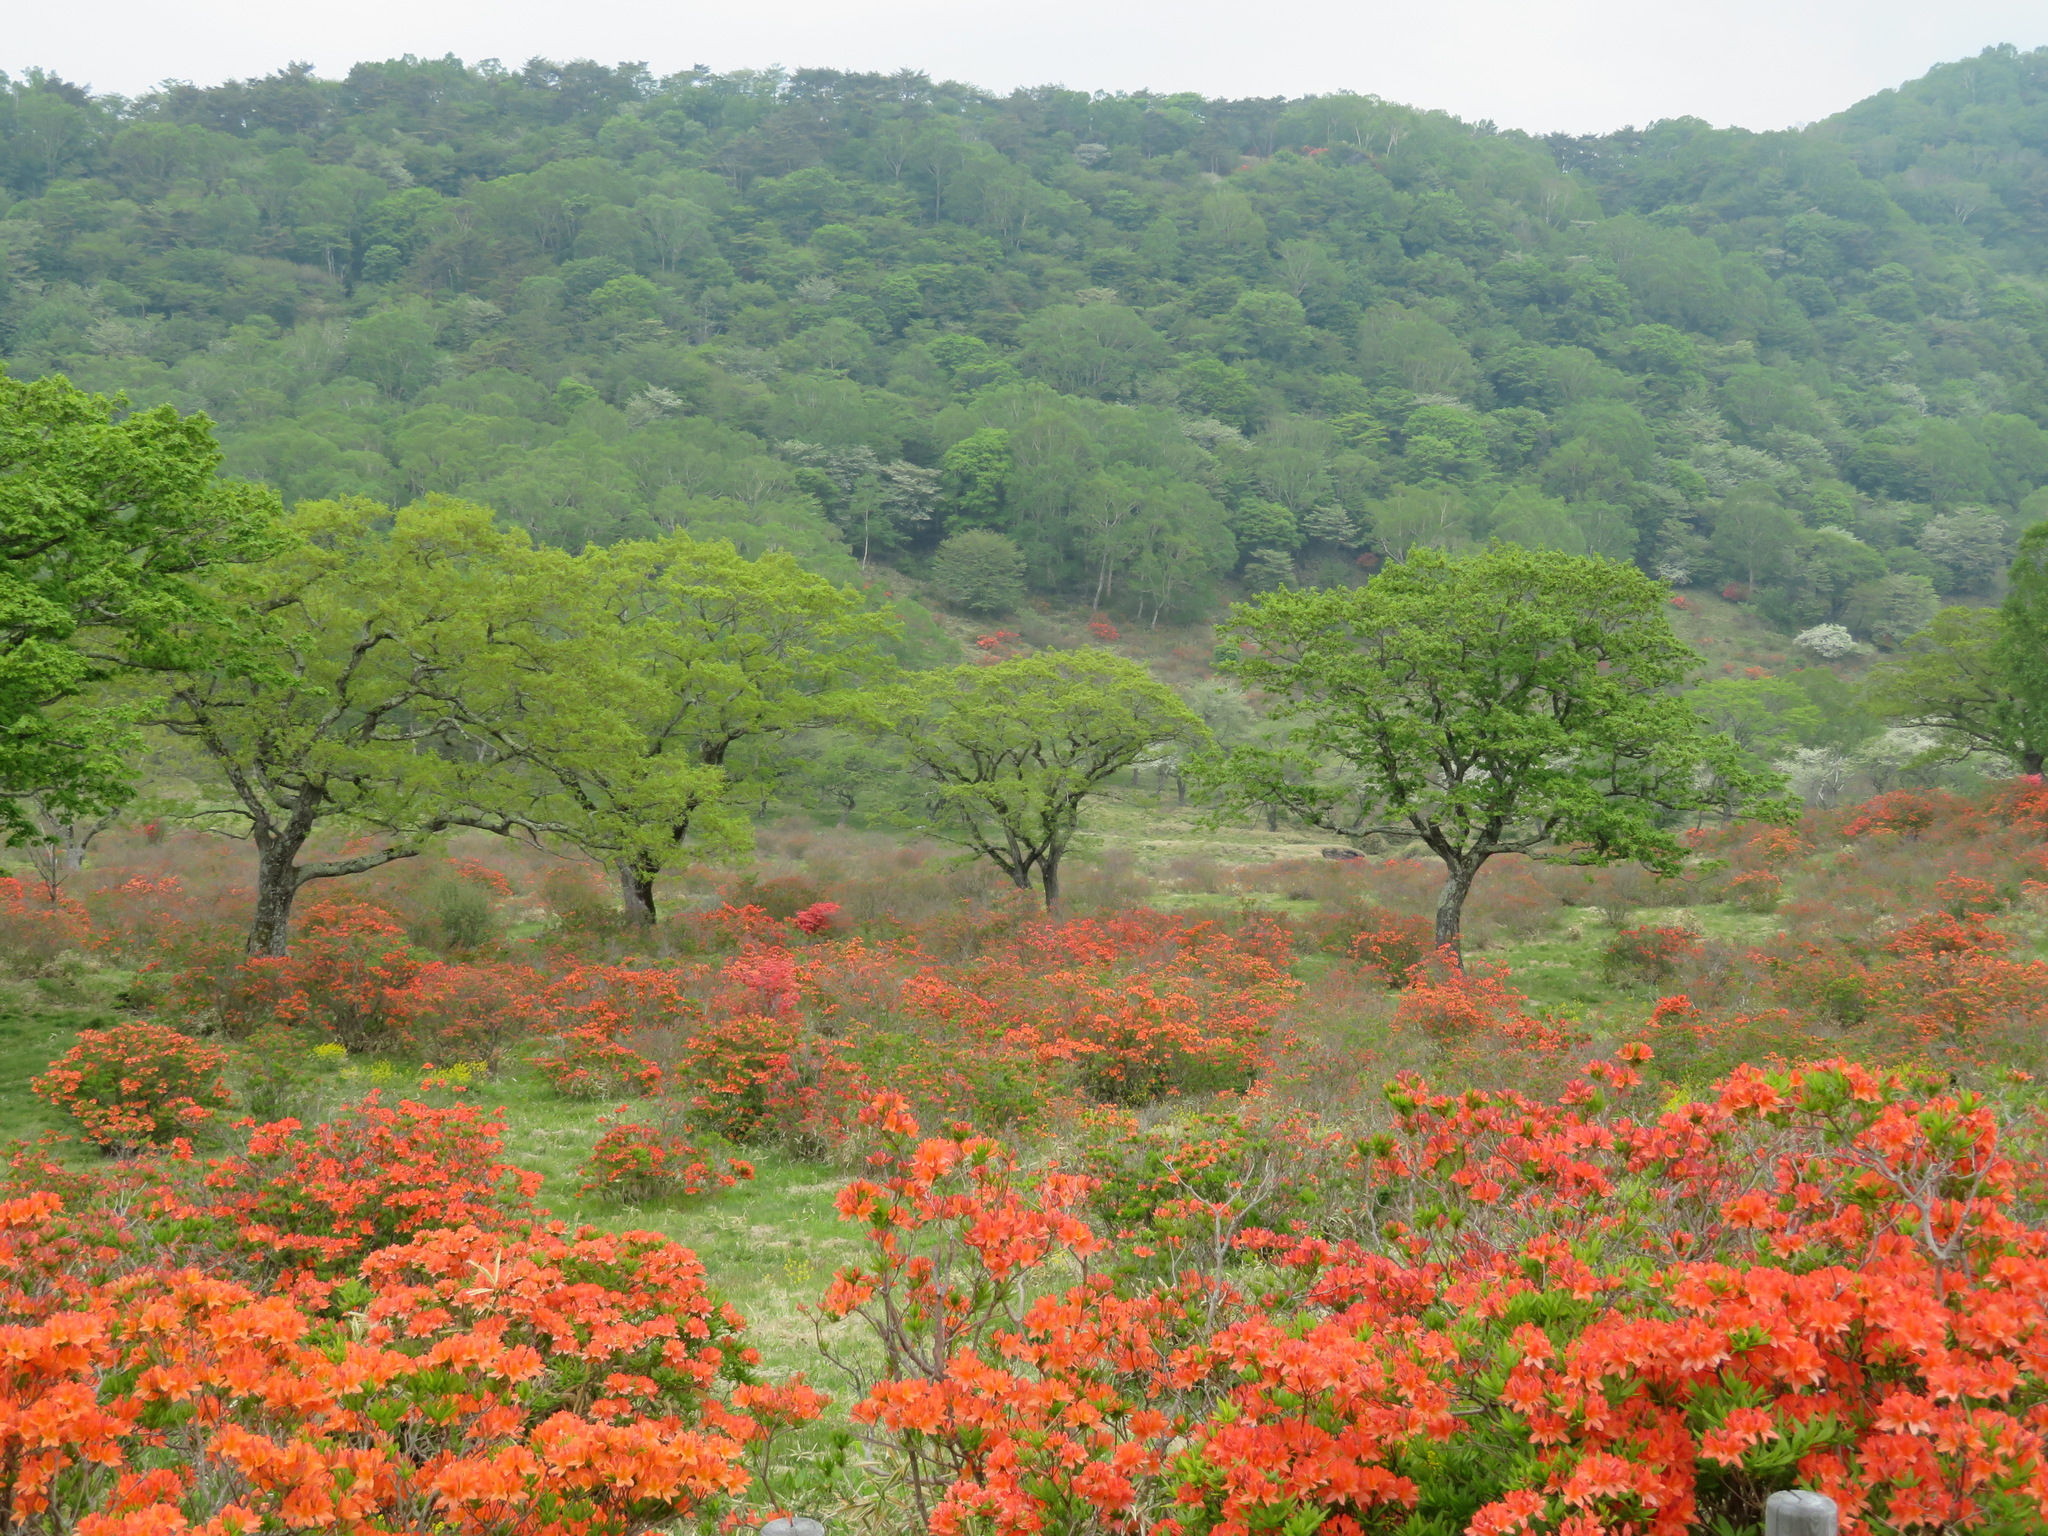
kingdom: Plantae
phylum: Tracheophyta
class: Magnoliopsida
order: Ericales
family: Ericaceae
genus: Rhododendron
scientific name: Rhododendron japonicum
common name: Japanese azalea
